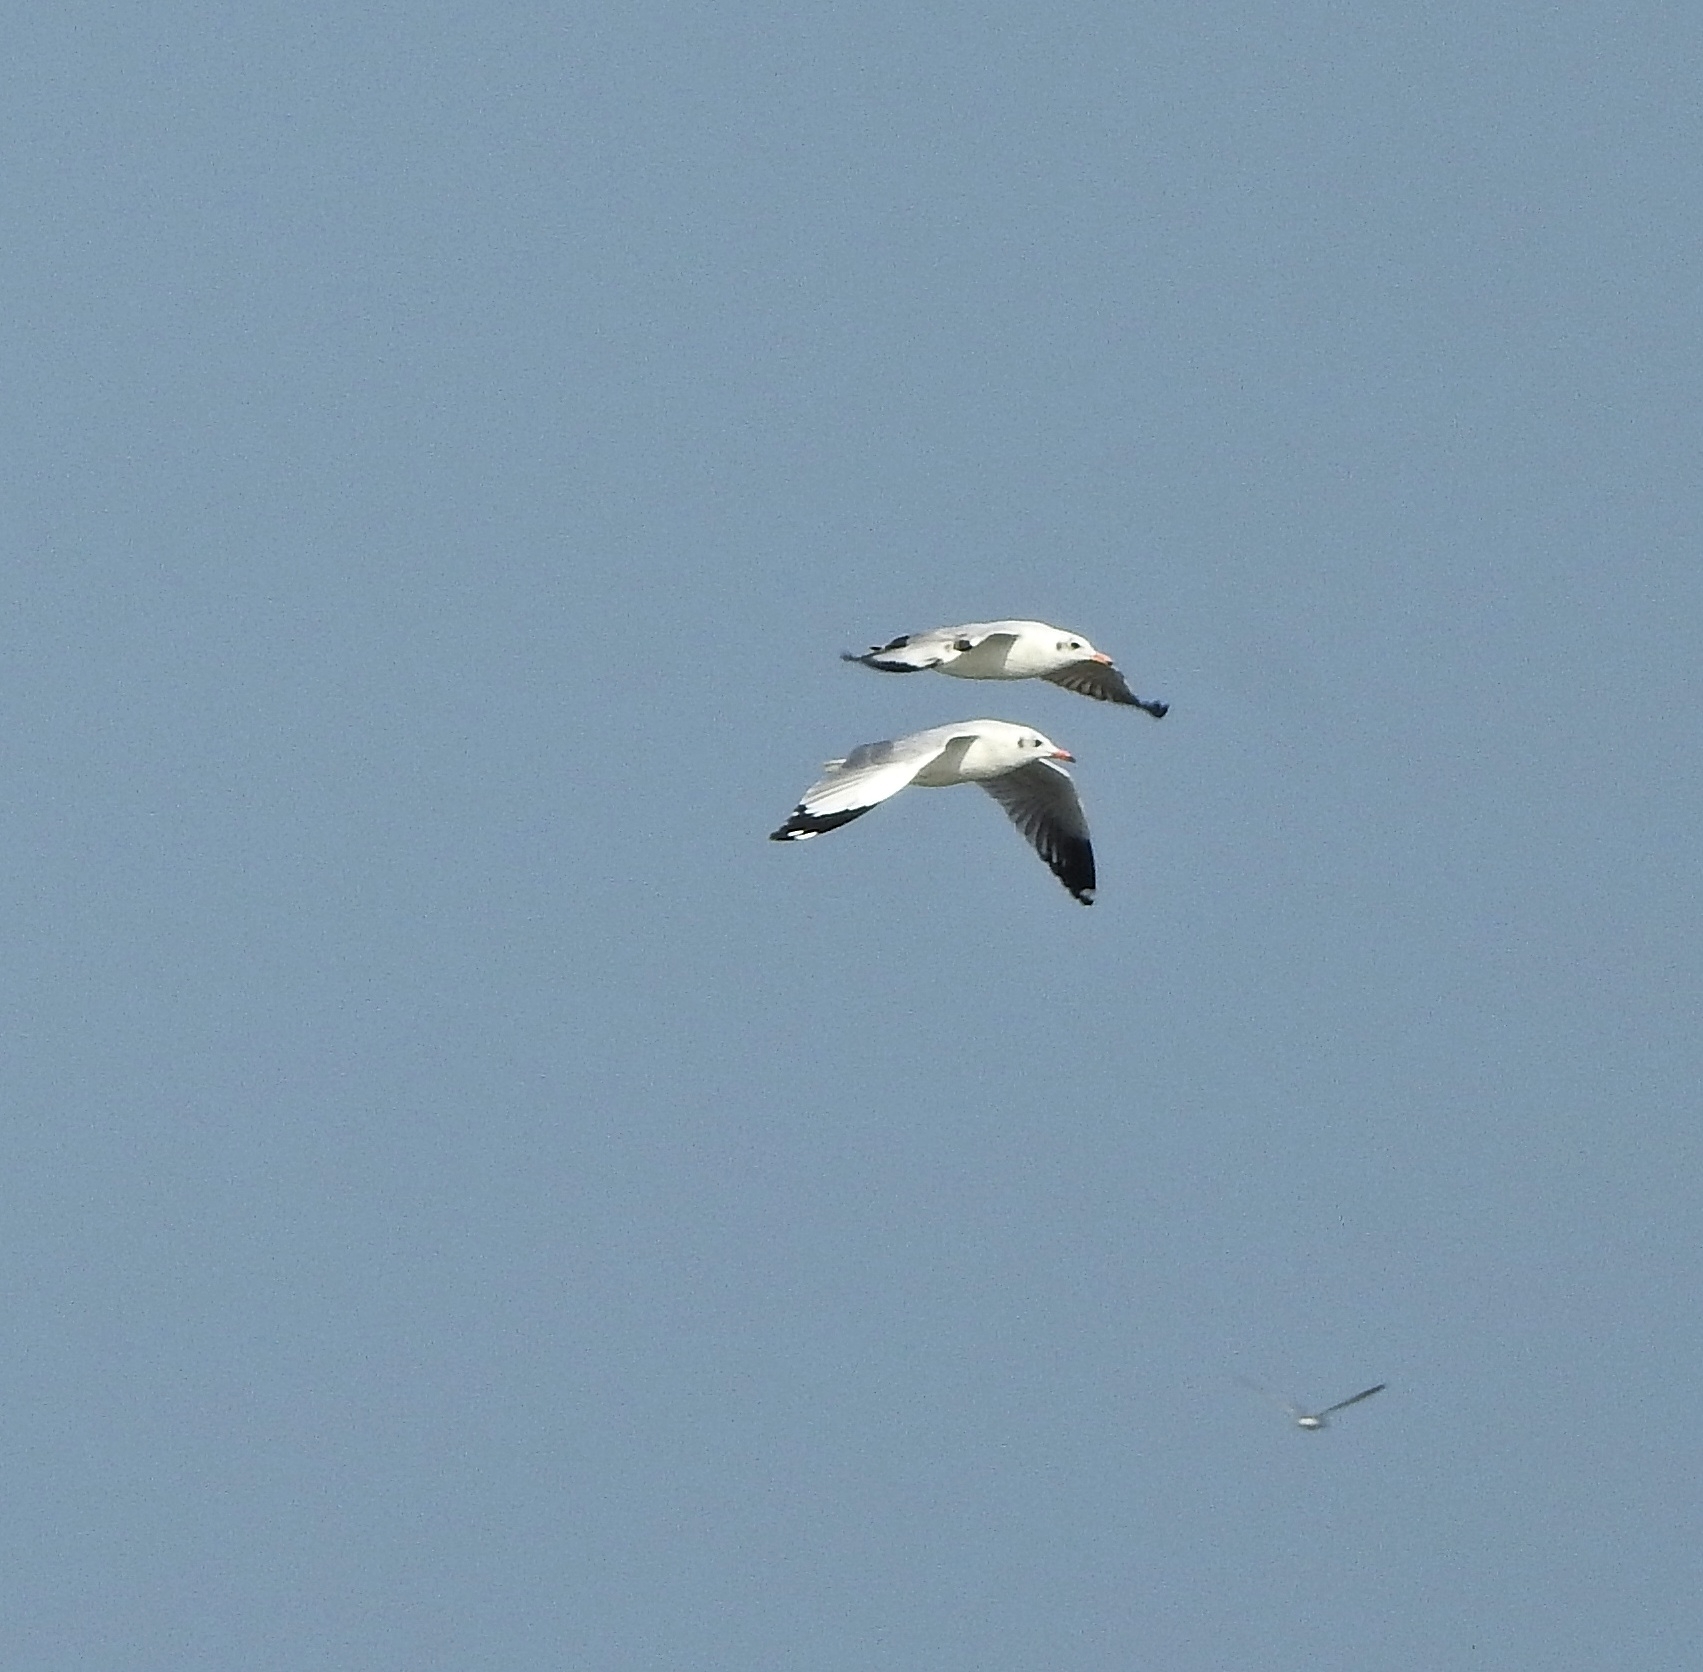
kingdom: Animalia
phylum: Chordata
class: Aves
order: Charadriiformes
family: Laridae
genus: Chroicocephalus
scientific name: Chroicocephalus brunnicephalus
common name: Brown-headed gull
